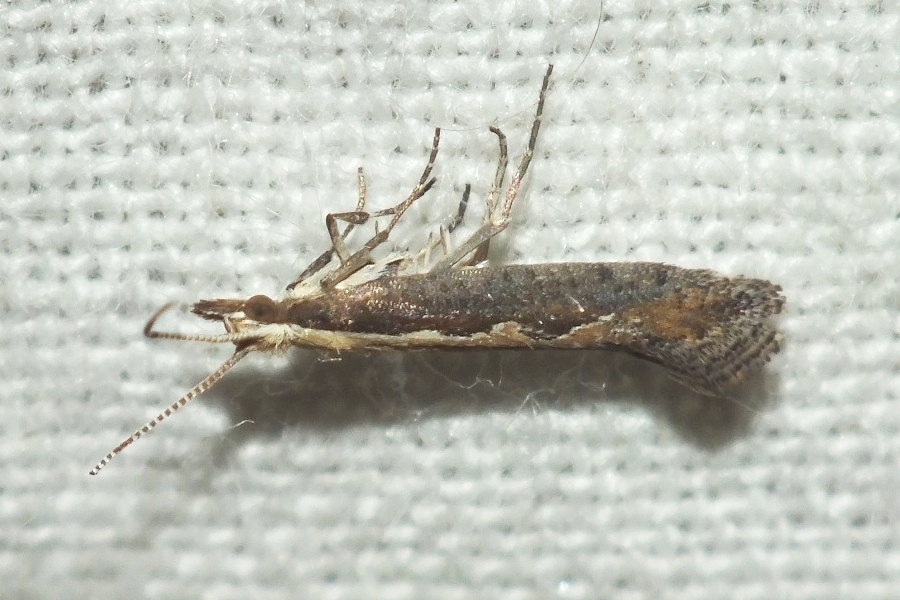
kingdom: Animalia
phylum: Arthropoda
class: Insecta
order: Lepidoptera
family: Plutellidae
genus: Plutella
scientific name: Plutella xylostella
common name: Diamond-back moth
